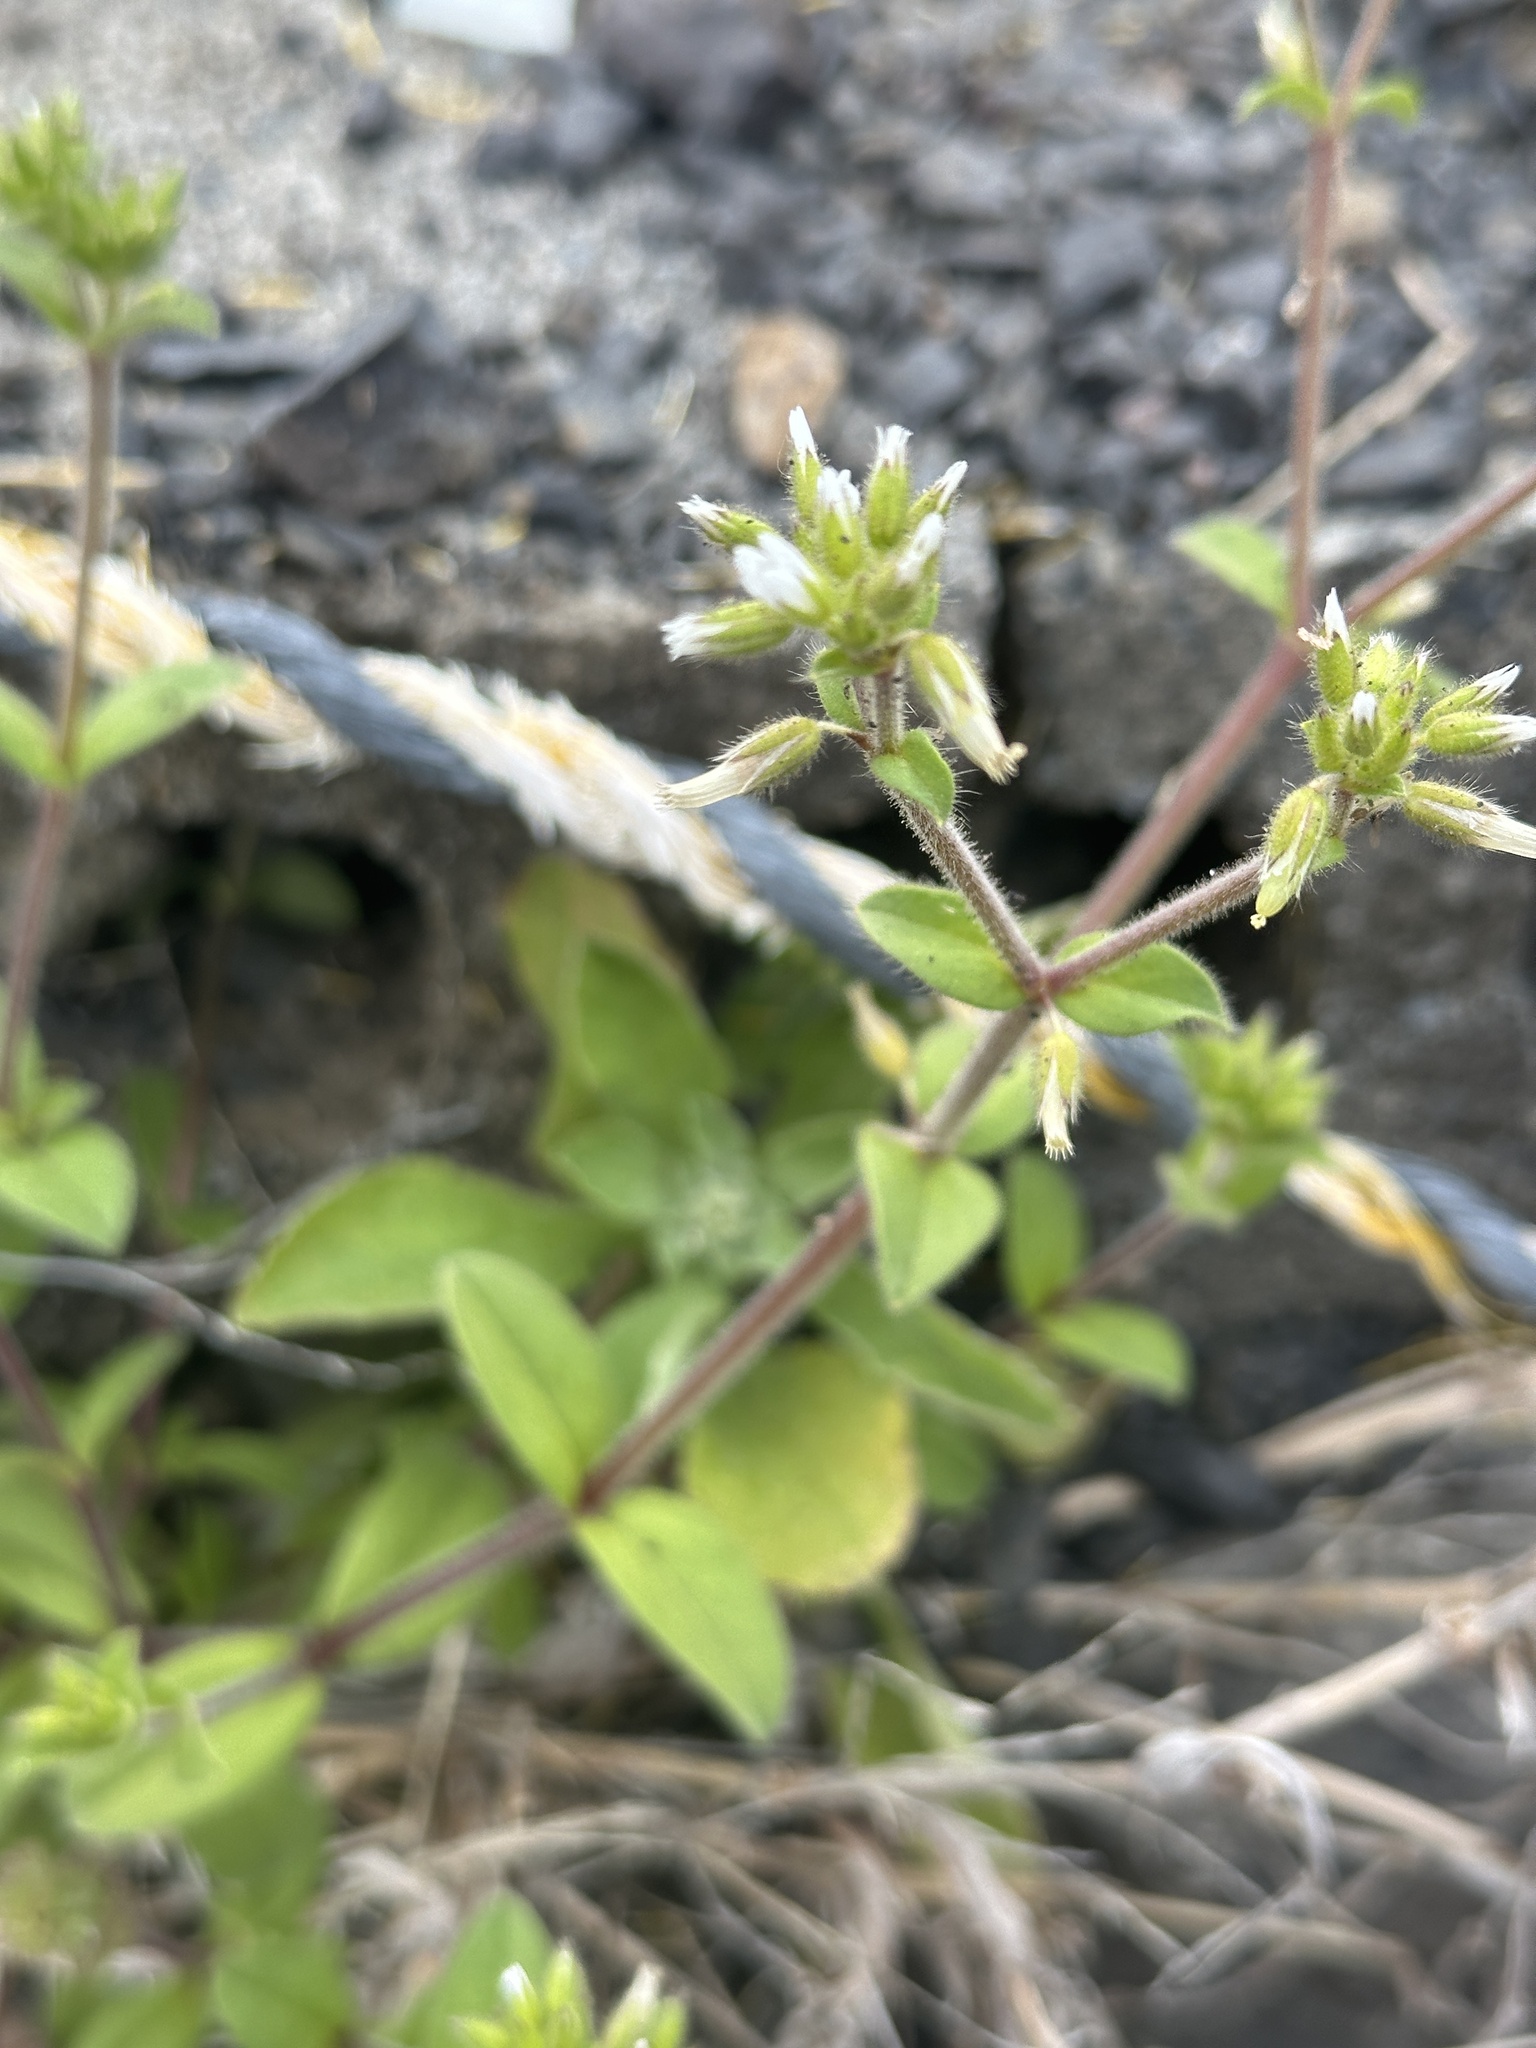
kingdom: Plantae
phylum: Tracheophyta
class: Magnoliopsida
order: Caryophyllales
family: Caryophyllaceae
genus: Cerastium
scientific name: Cerastium glomeratum
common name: Sticky chickweed
